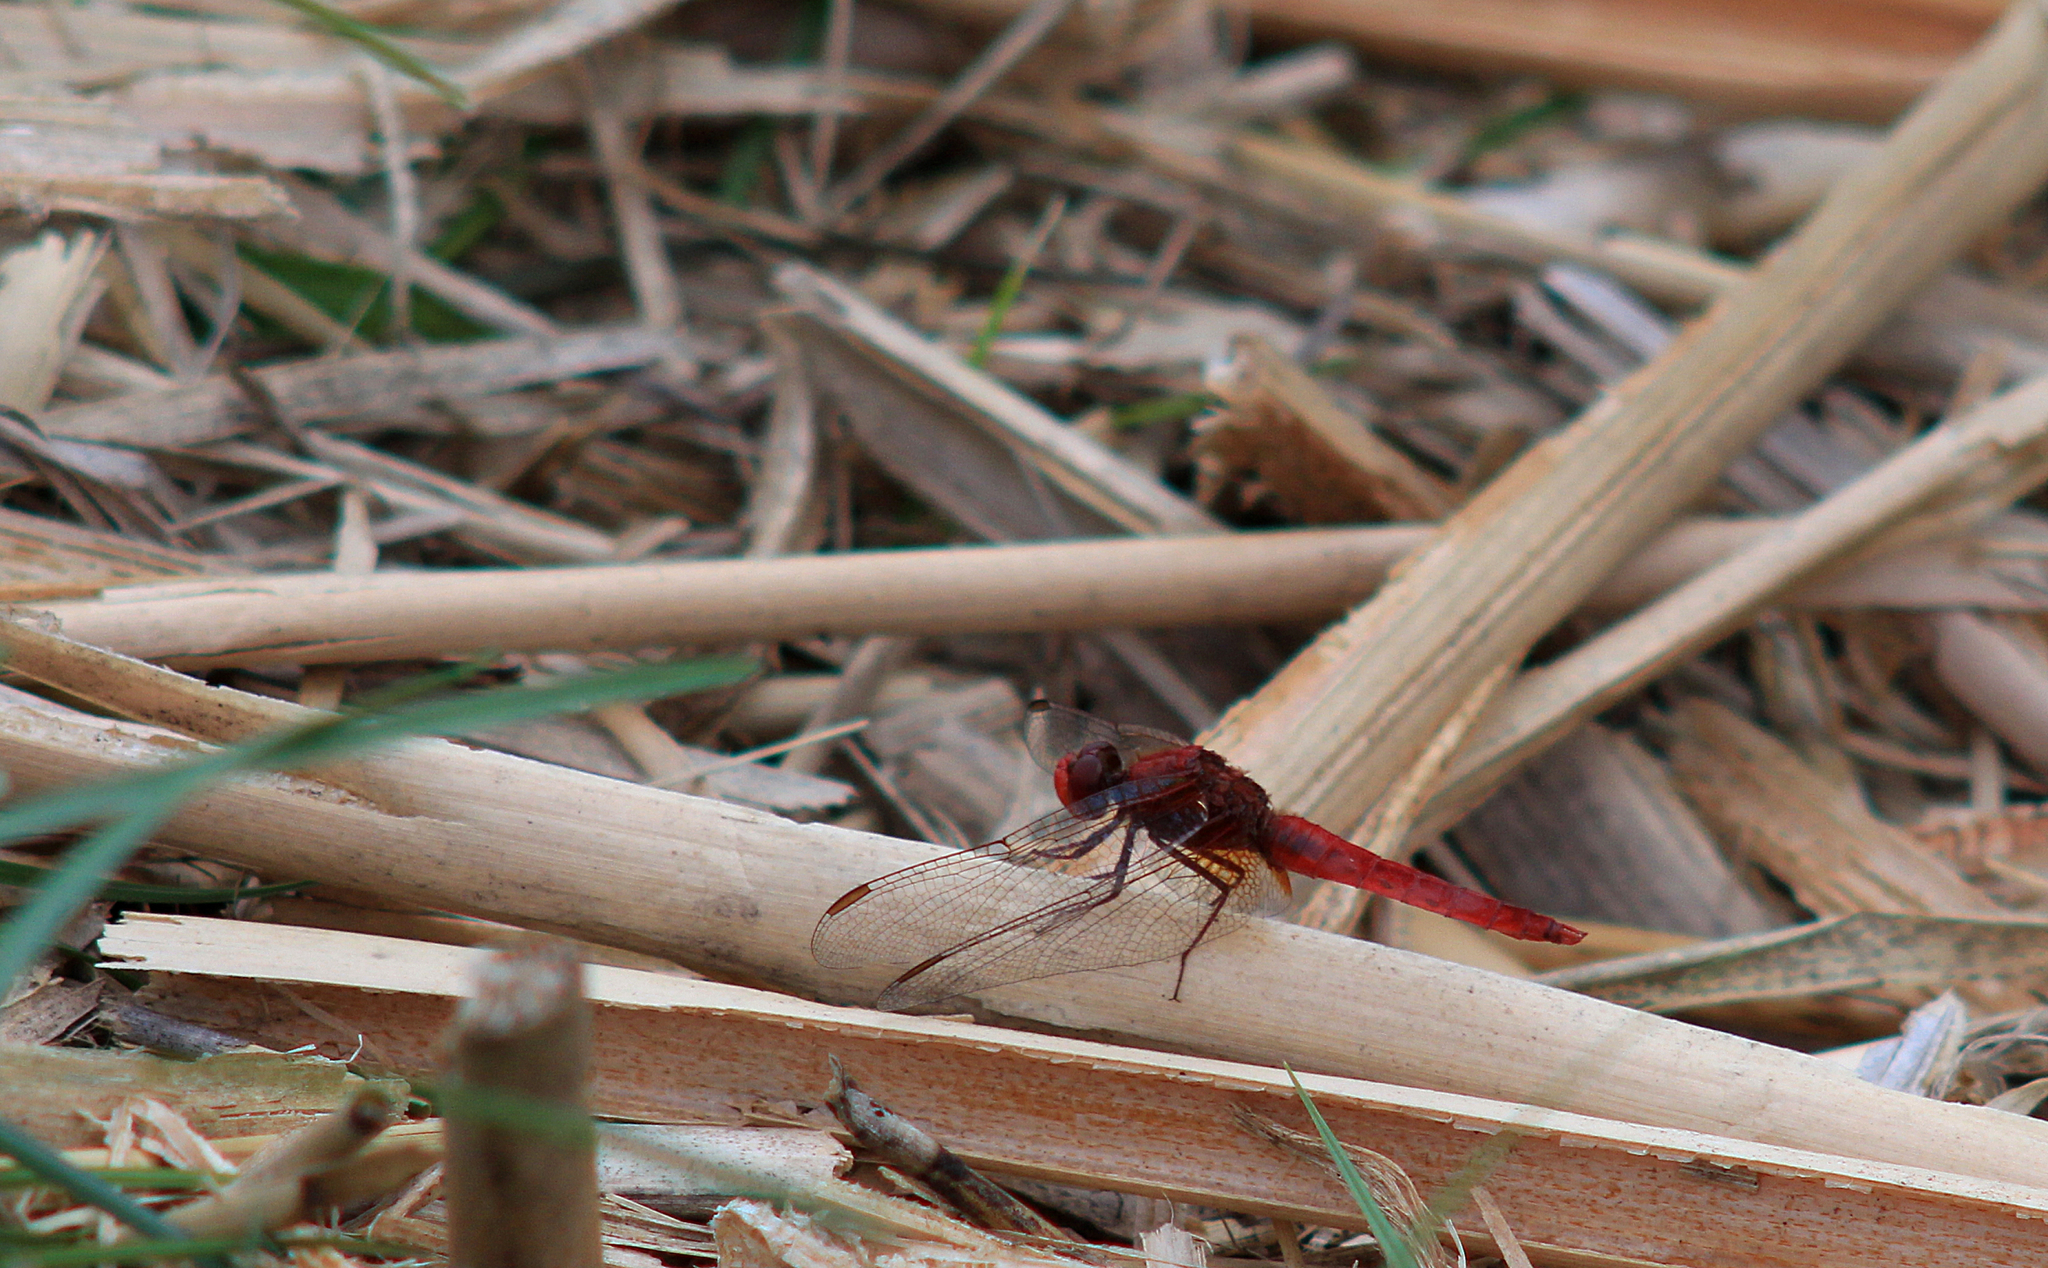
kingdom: Animalia
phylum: Arthropoda
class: Insecta
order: Odonata
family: Libellulidae
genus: Crocothemis
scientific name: Crocothemis erythraea
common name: Scarlet dragonfly
